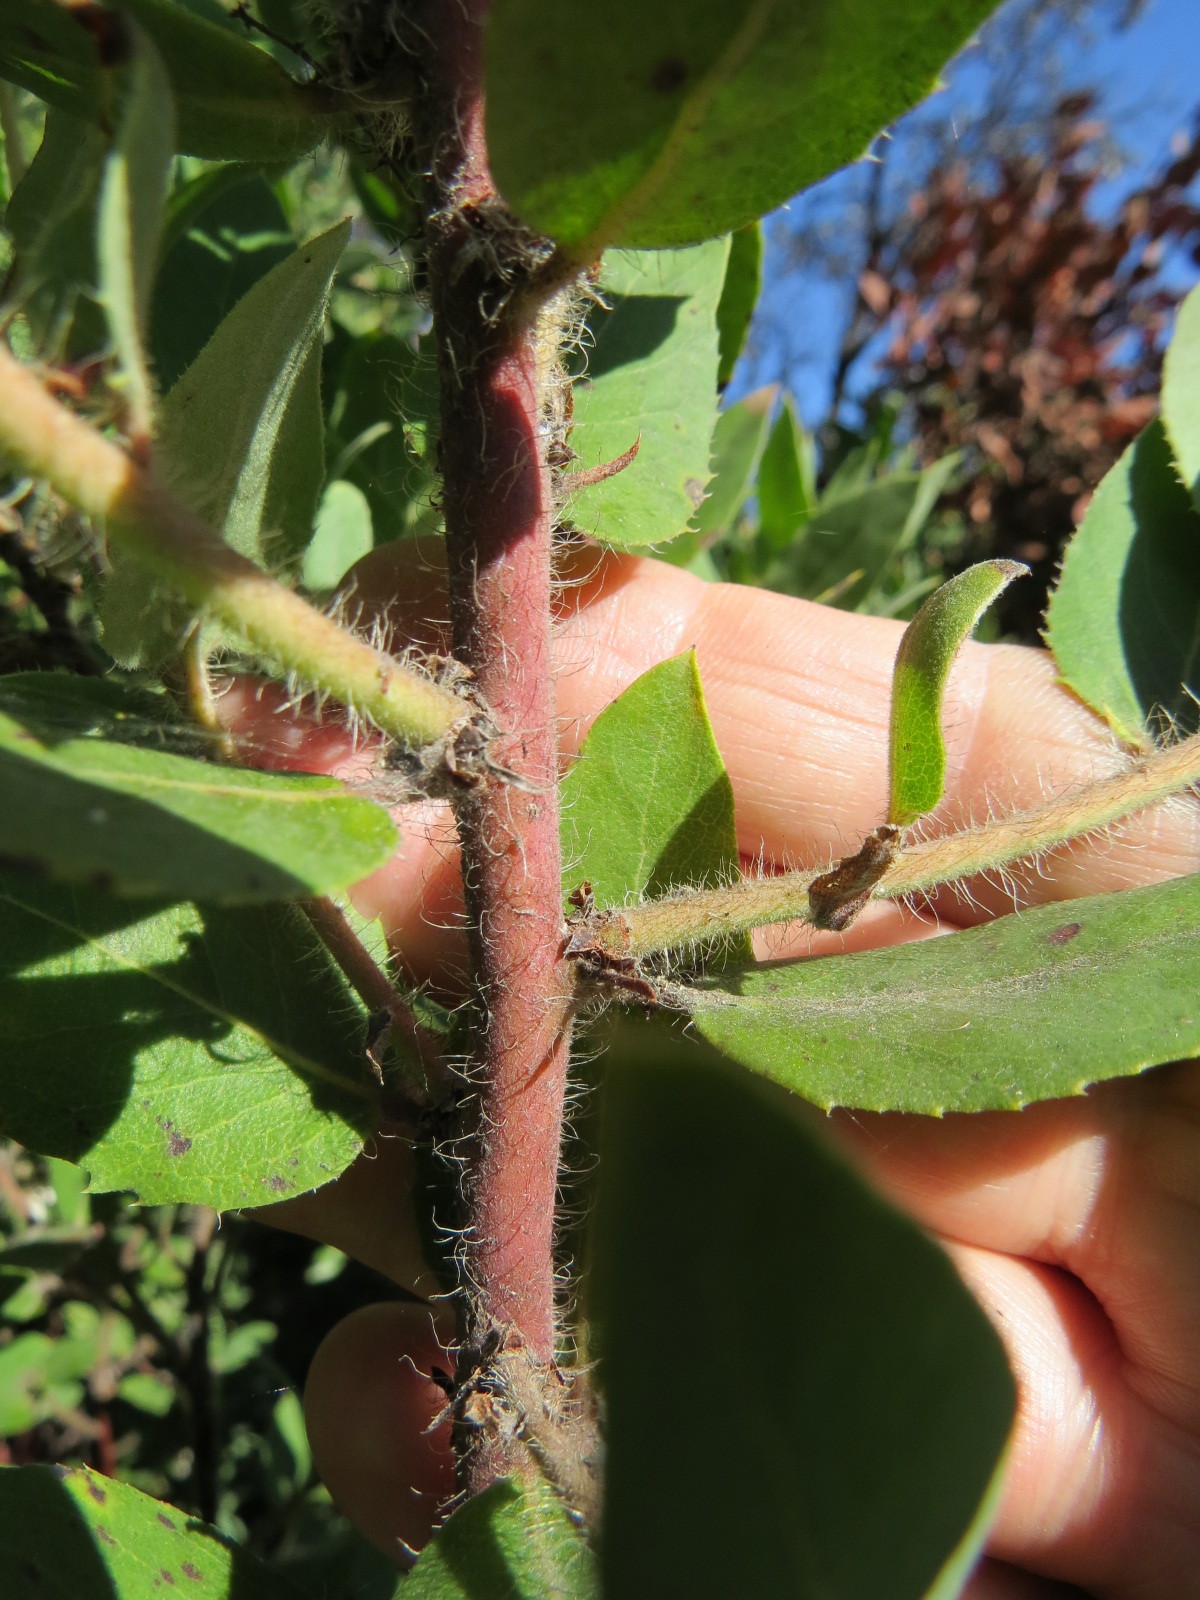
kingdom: Plantae
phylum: Tracheophyta
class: Magnoliopsida
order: Ericales
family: Ericaceae
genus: Arctostaphylos
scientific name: Arctostaphylos crustacea
